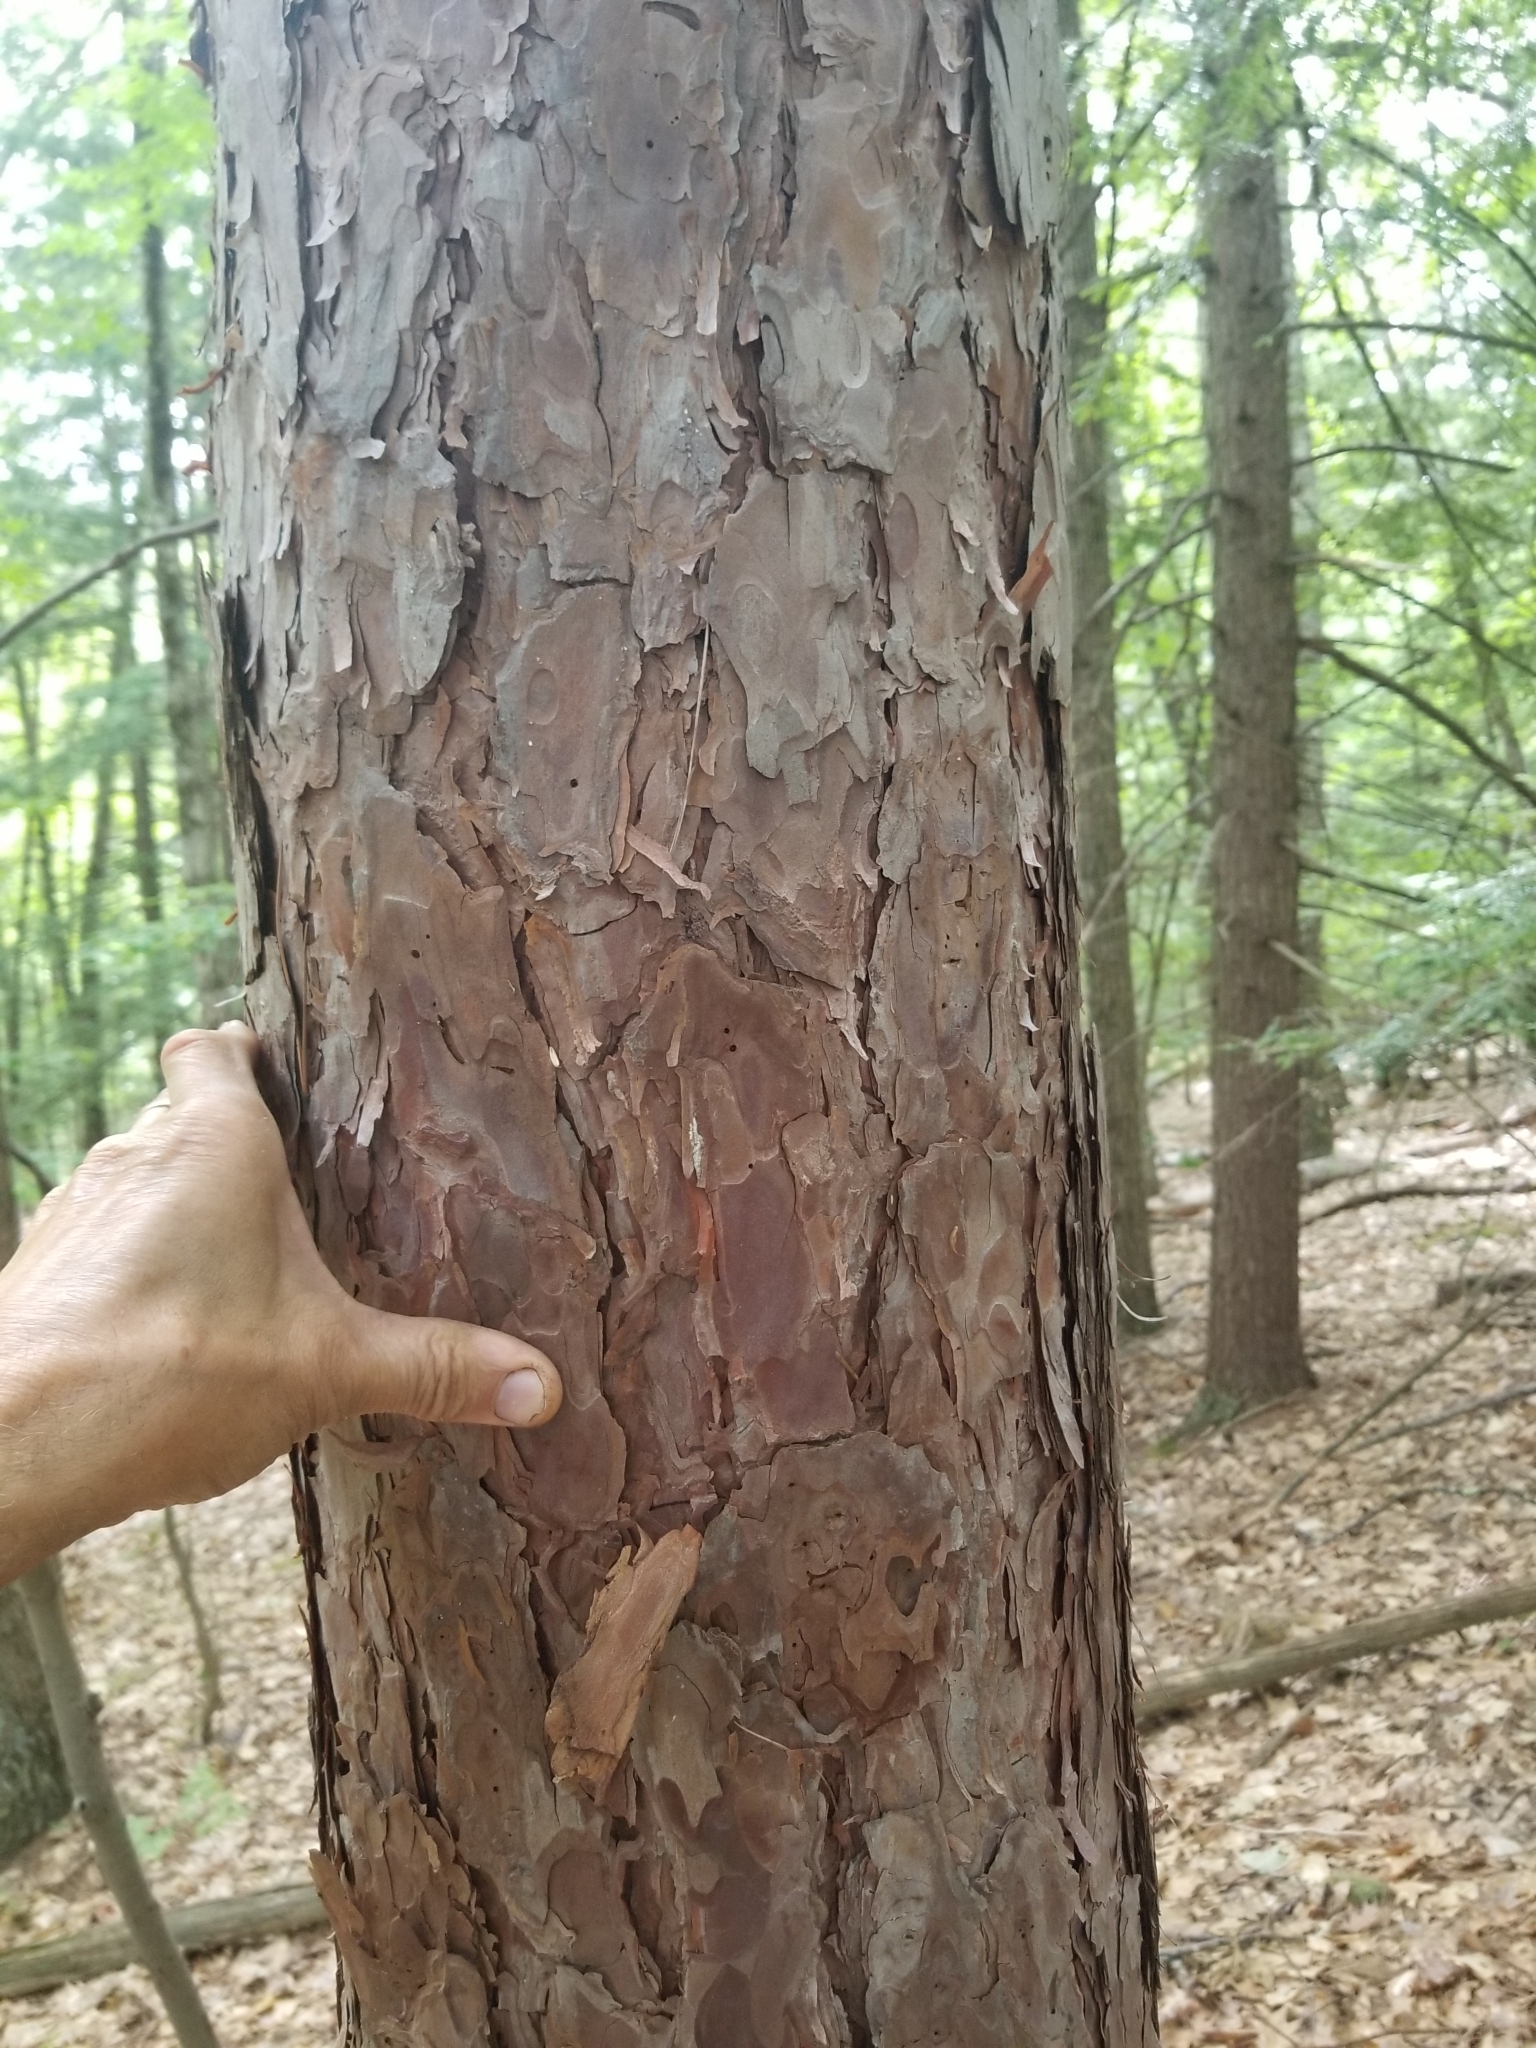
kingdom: Plantae
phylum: Tracheophyta
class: Pinopsida
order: Pinales
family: Pinaceae
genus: Pinus
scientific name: Pinus resinosa
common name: Norway pine
